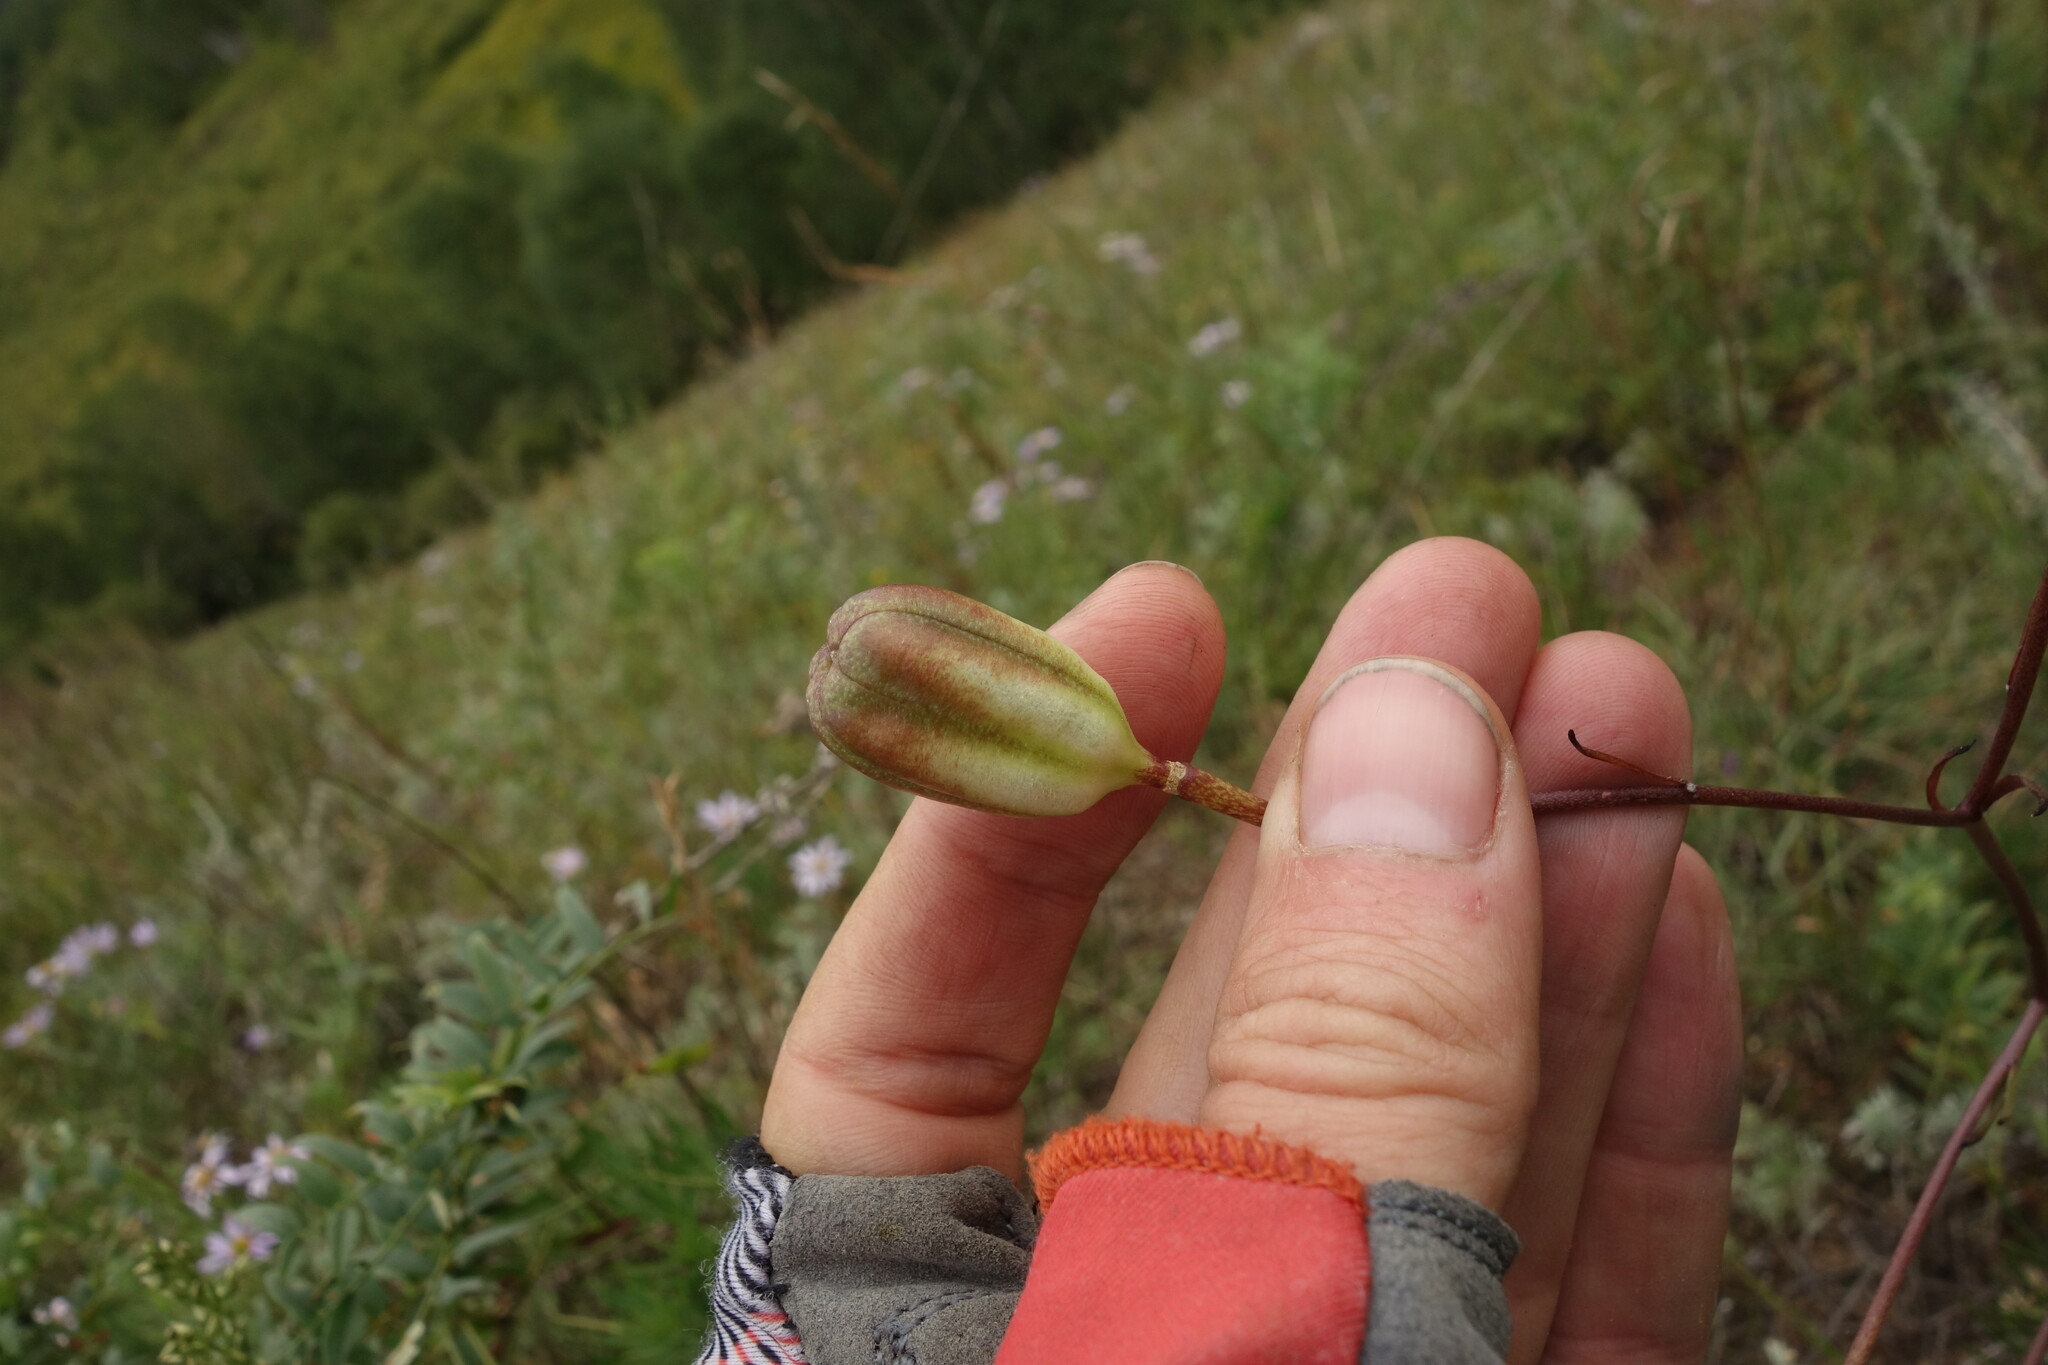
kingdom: Plantae
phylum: Tracheophyta
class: Liliopsida
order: Liliales
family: Liliaceae
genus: Lilium
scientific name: Lilium pumilum
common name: Coral lily
